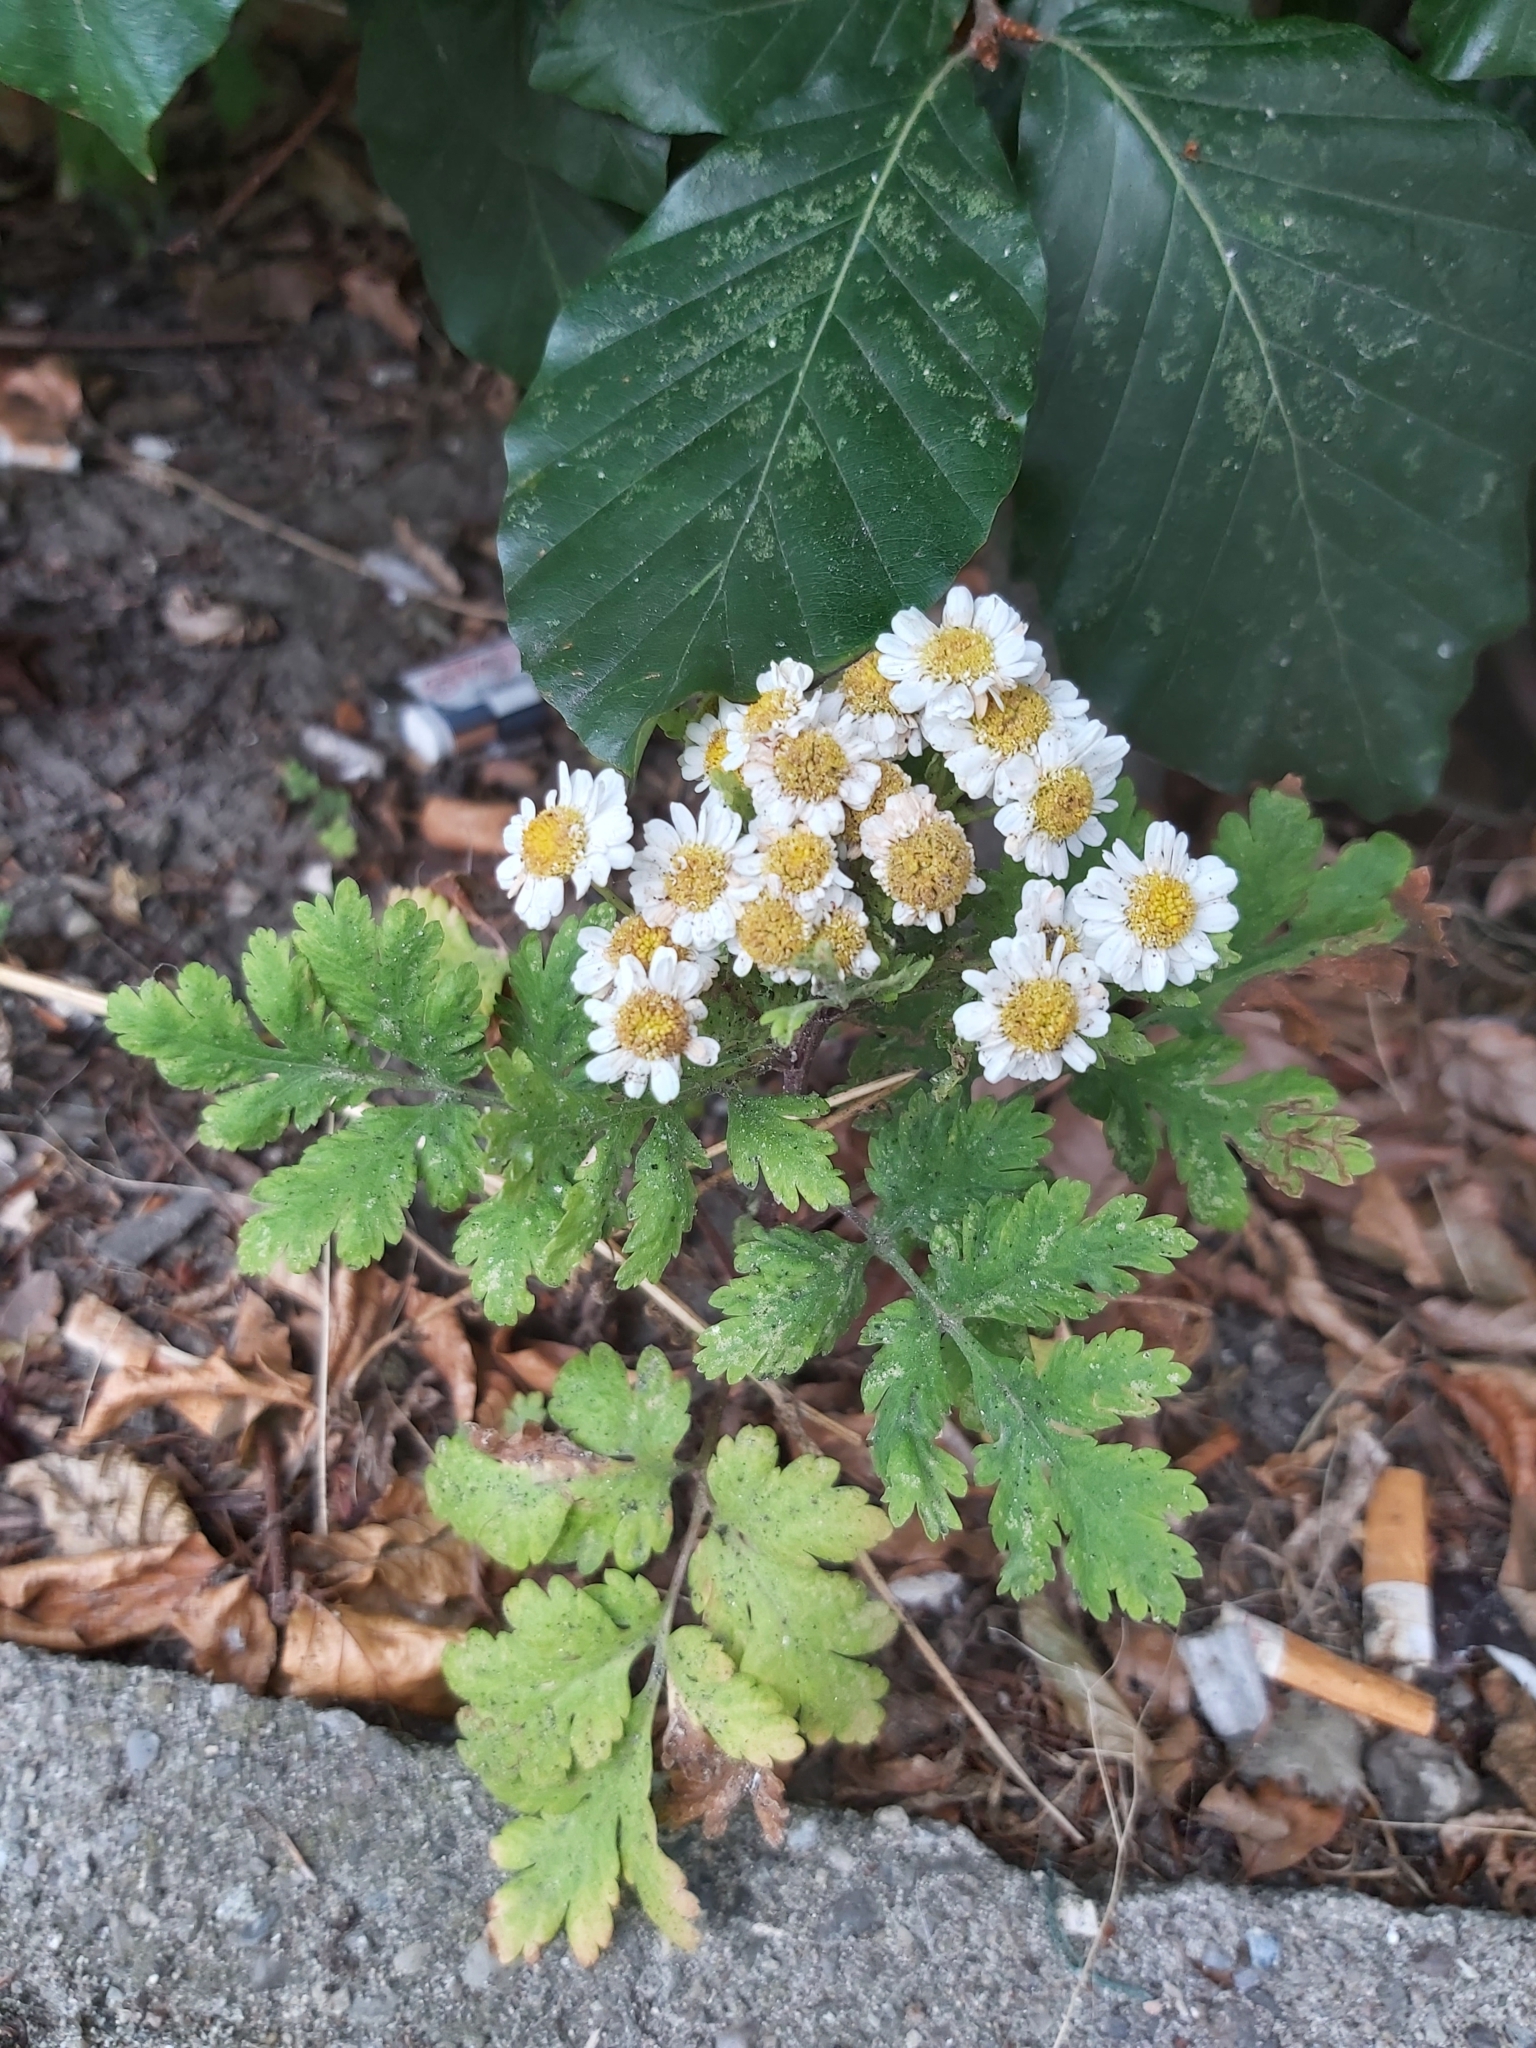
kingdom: Plantae
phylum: Tracheophyta
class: Magnoliopsida
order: Asterales
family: Asteraceae
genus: Tanacetum
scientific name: Tanacetum parthenium
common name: Feverfew
